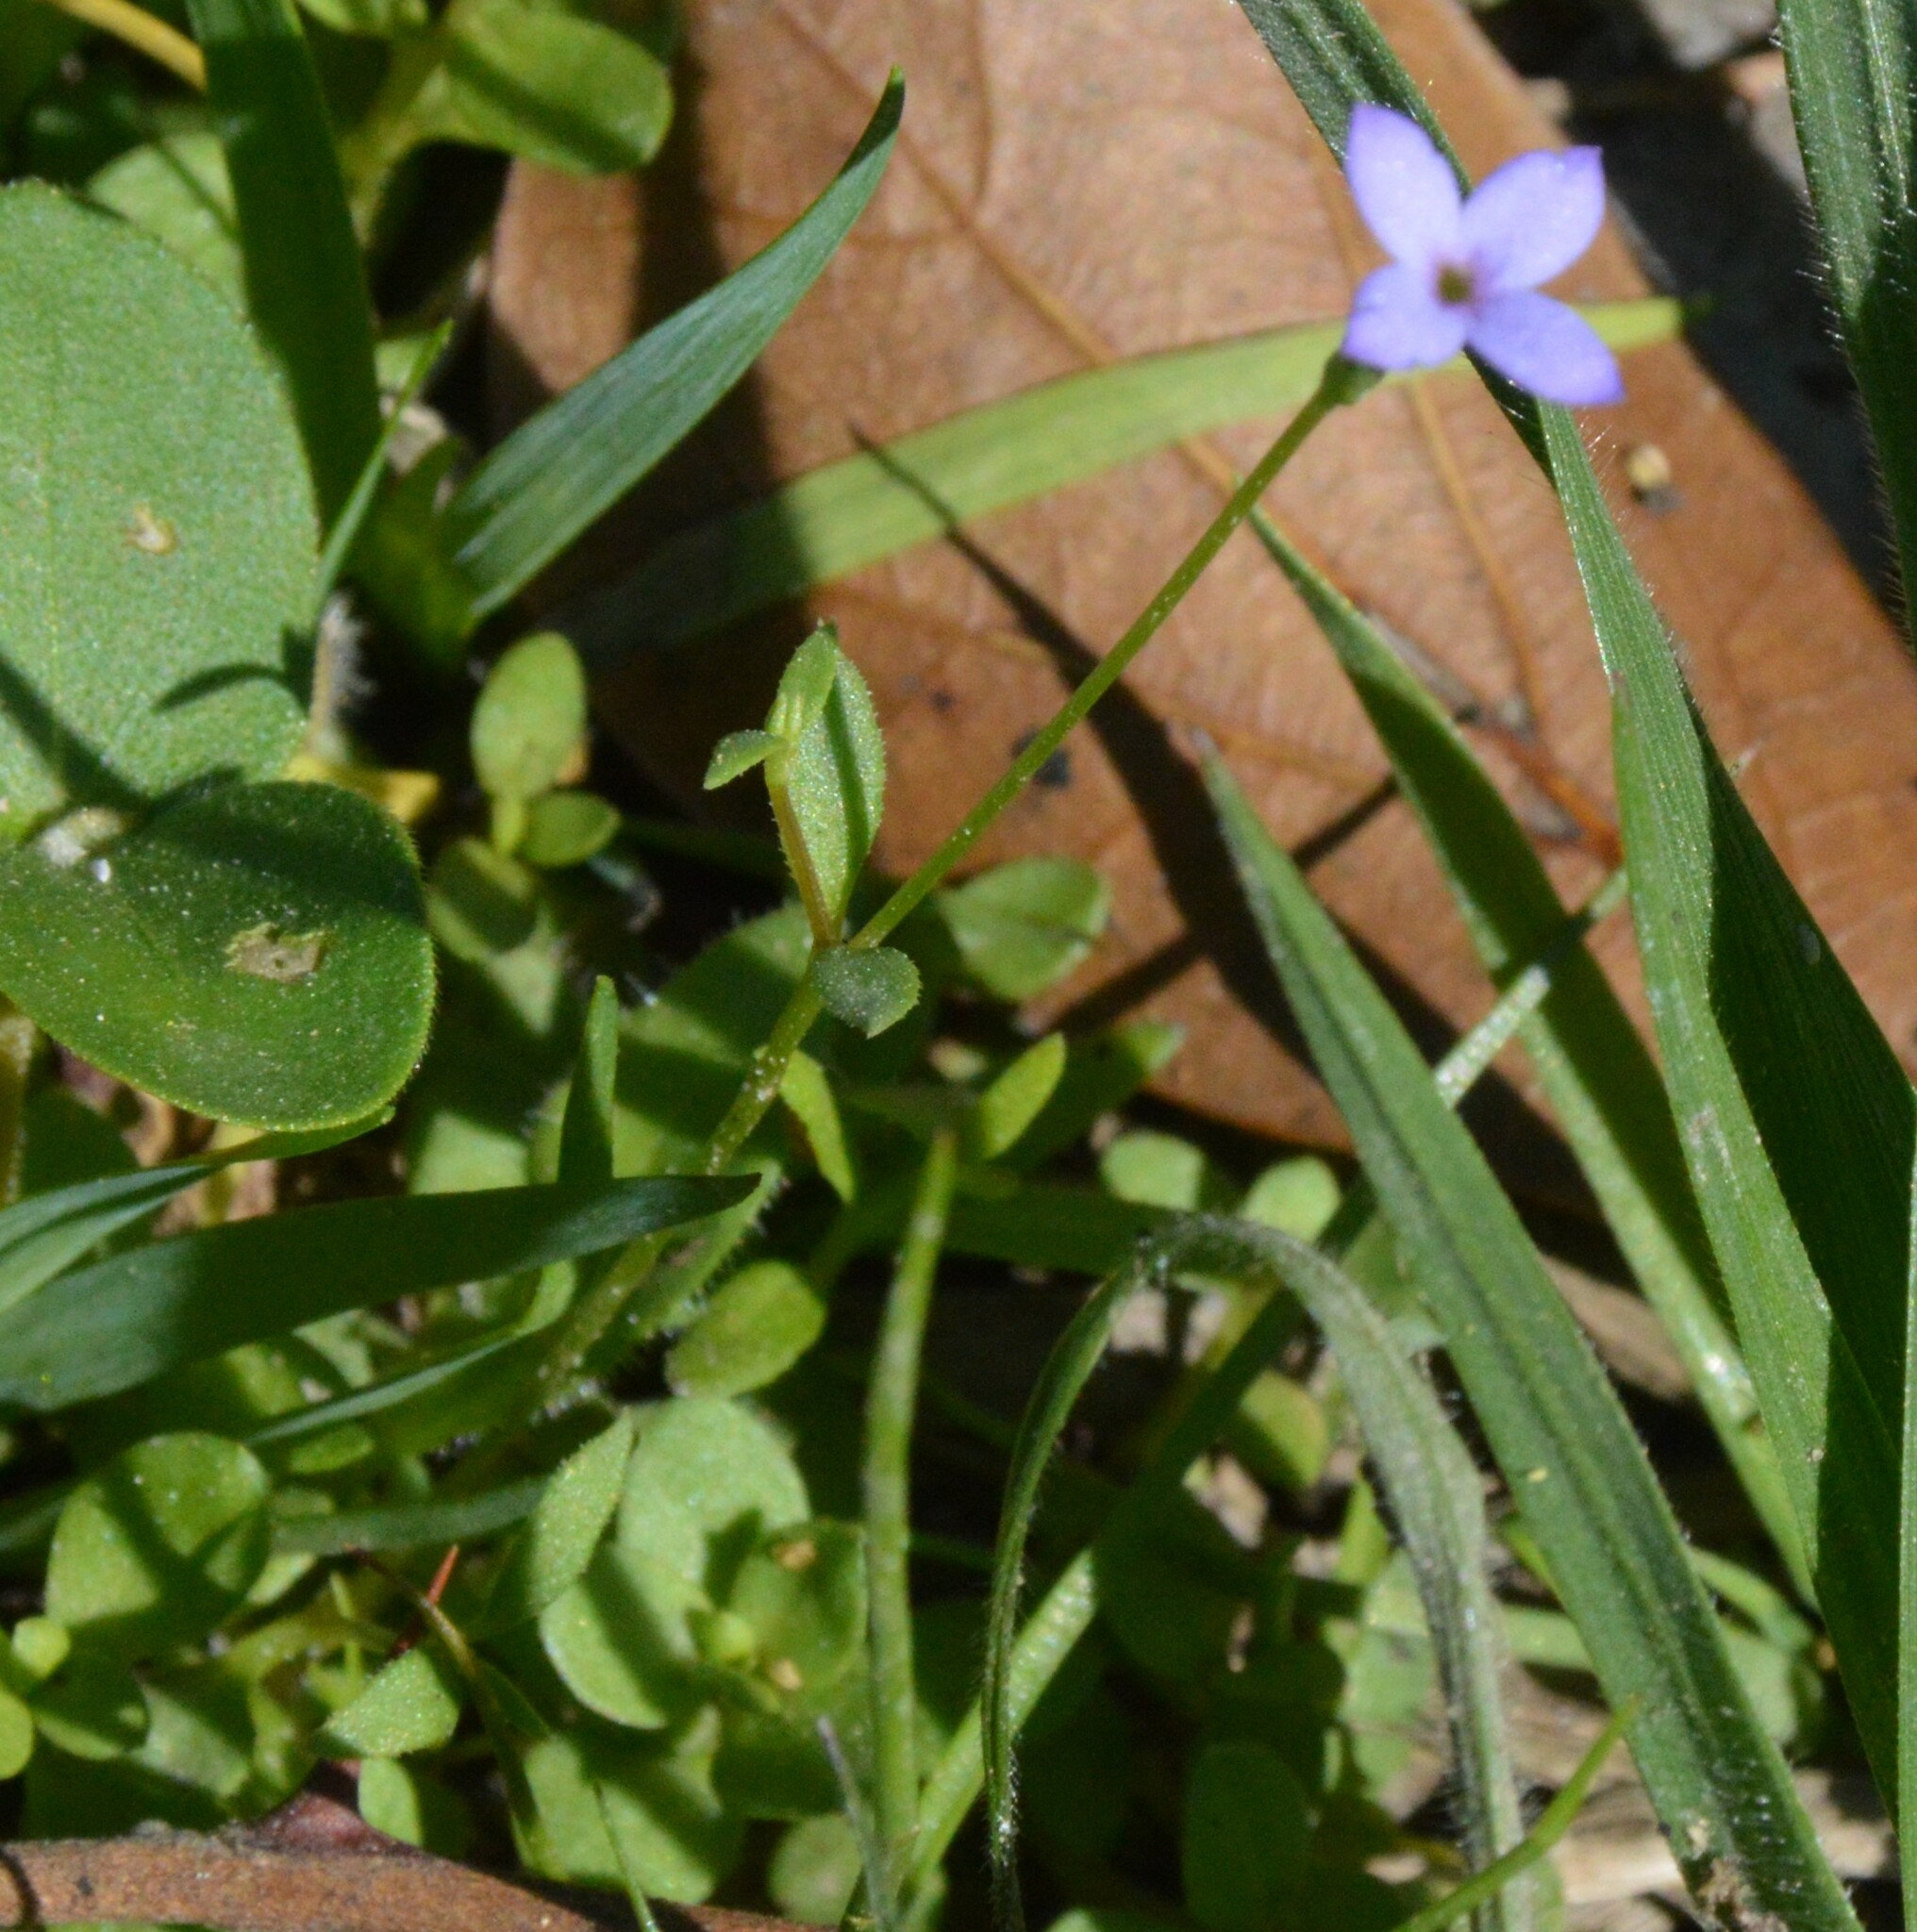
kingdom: Plantae
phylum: Tracheophyta
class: Magnoliopsida
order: Gentianales
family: Rubiaceae
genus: Houstonia
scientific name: Houstonia pusilla
